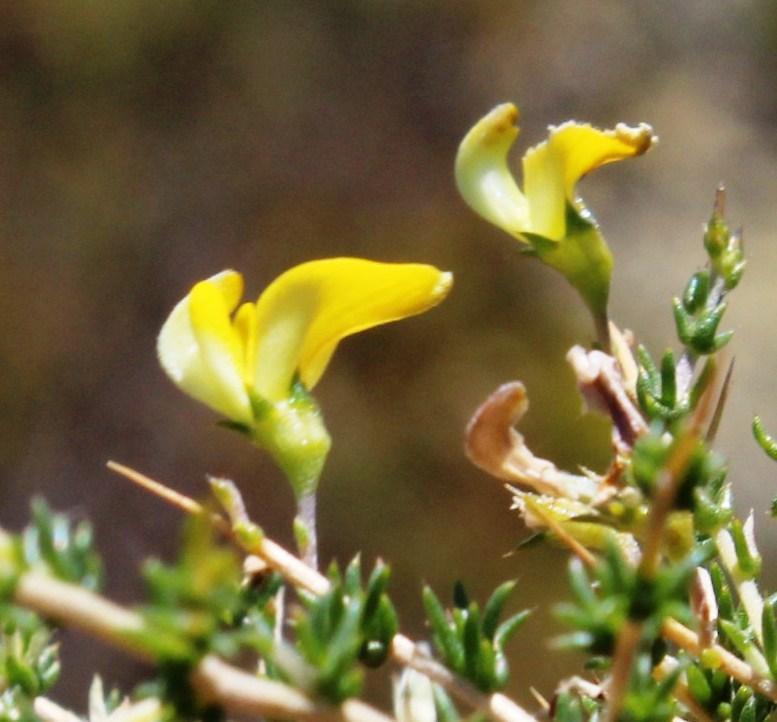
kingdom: Plantae
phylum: Tracheophyta
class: Magnoliopsida
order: Fabales
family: Fabaceae
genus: Aspalathus
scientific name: Aspalathus acuminata
